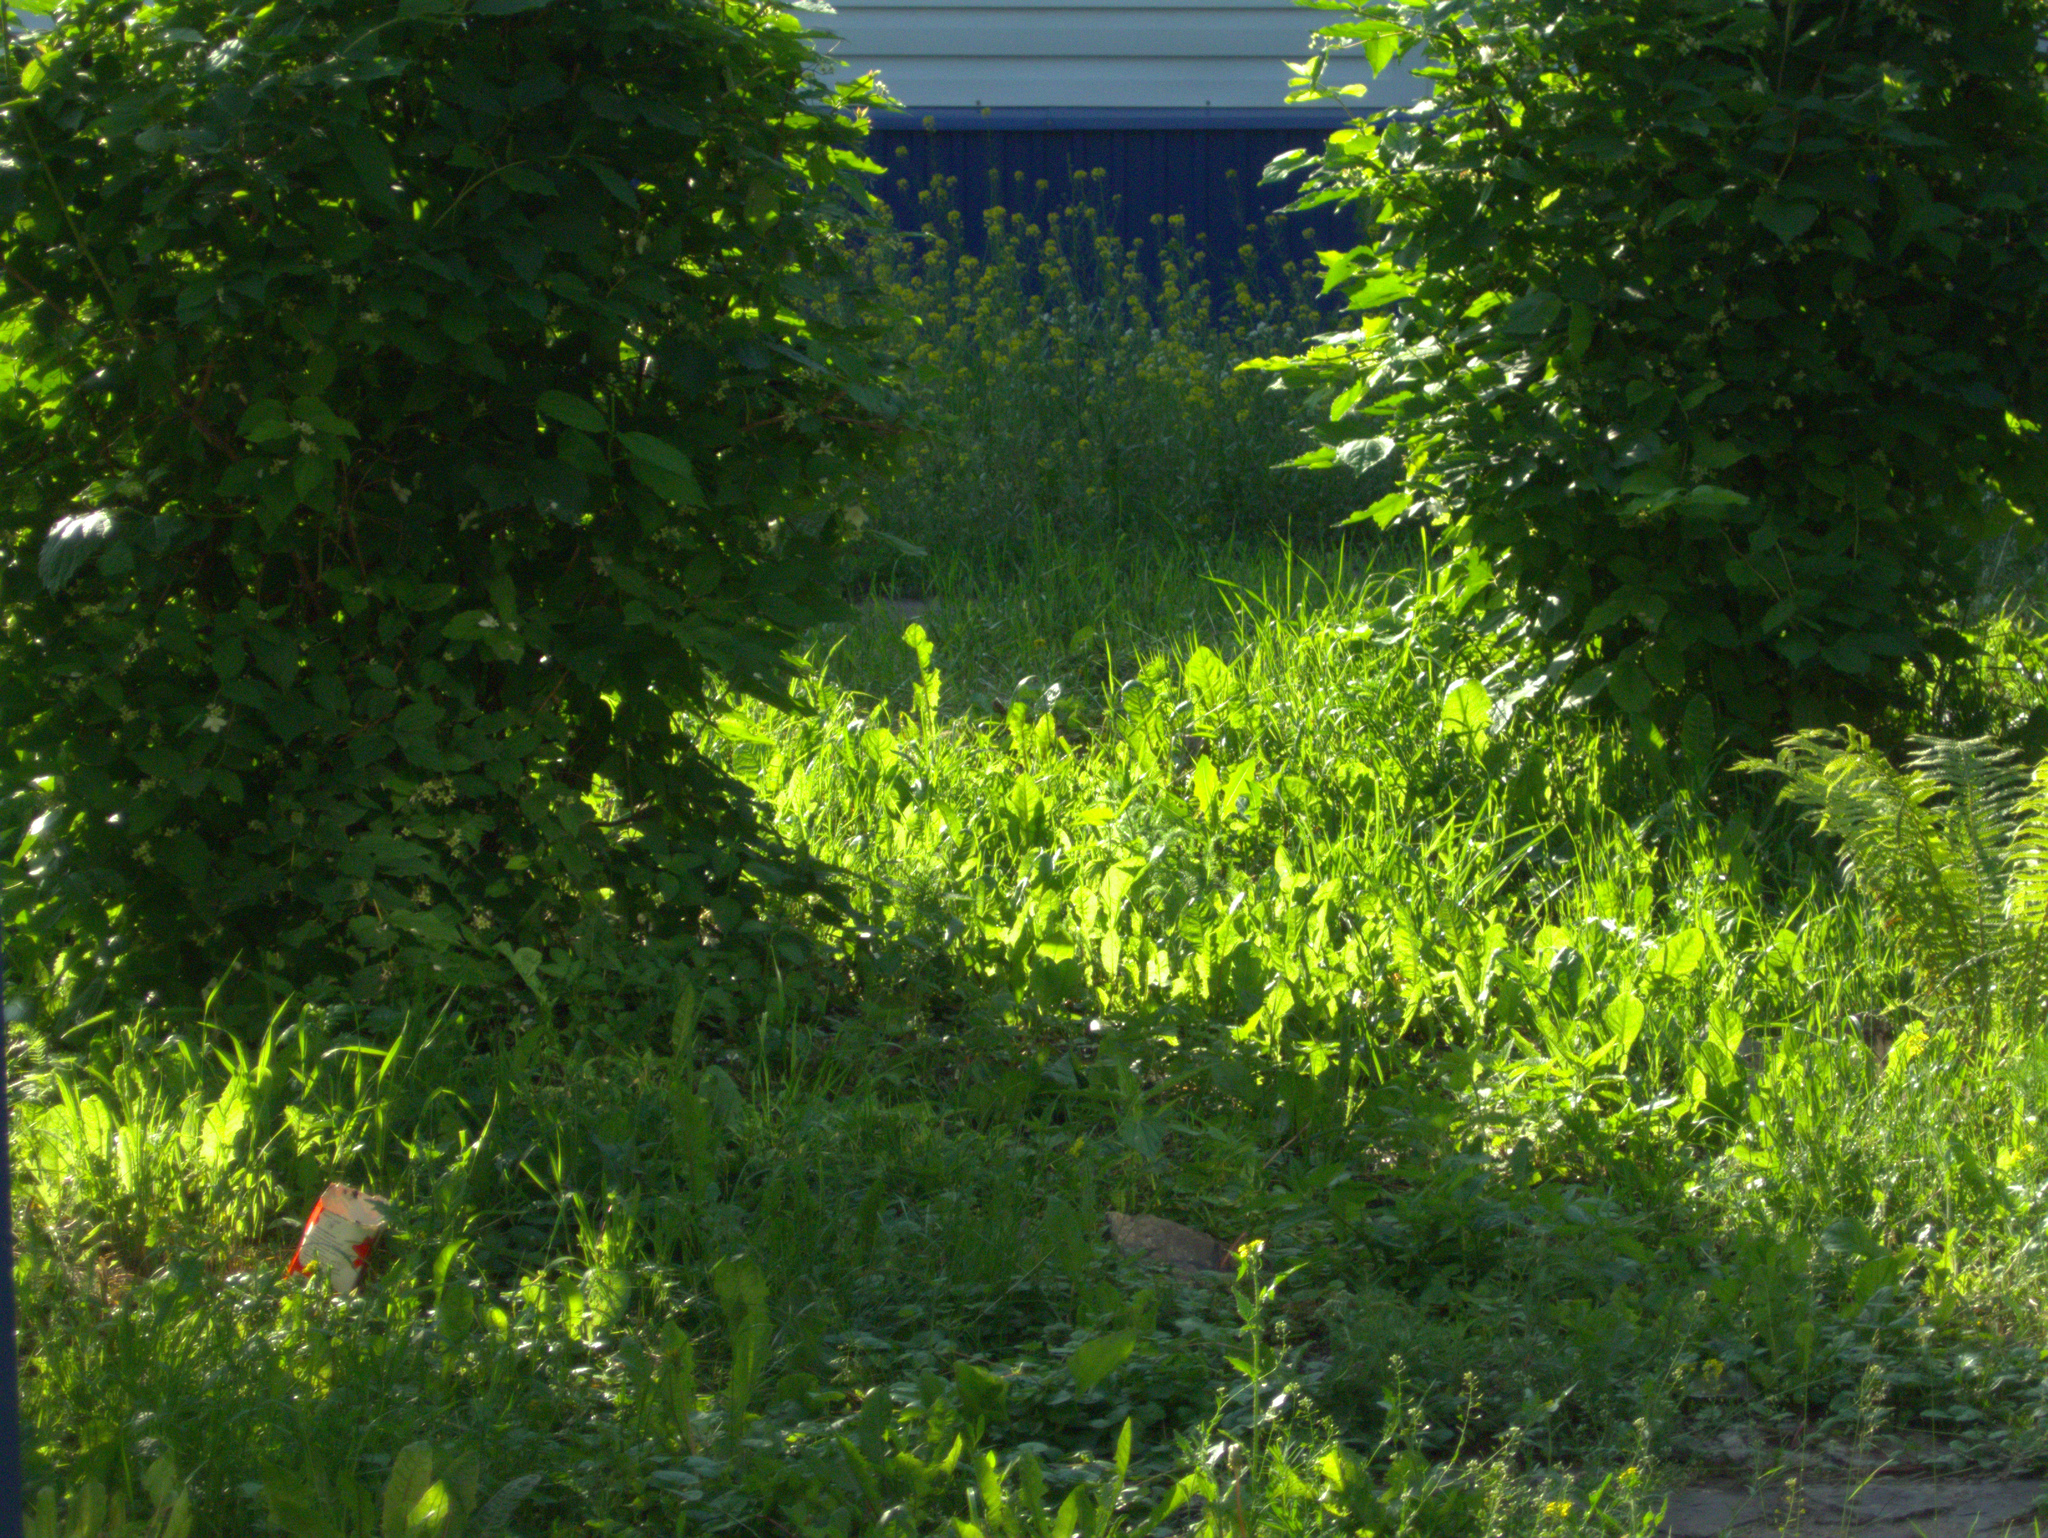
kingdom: Plantae
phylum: Tracheophyta
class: Magnoliopsida
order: Brassicales
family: Brassicaceae
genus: Capsella
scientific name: Capsella bursa-pastoris
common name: Shepherd's purse
